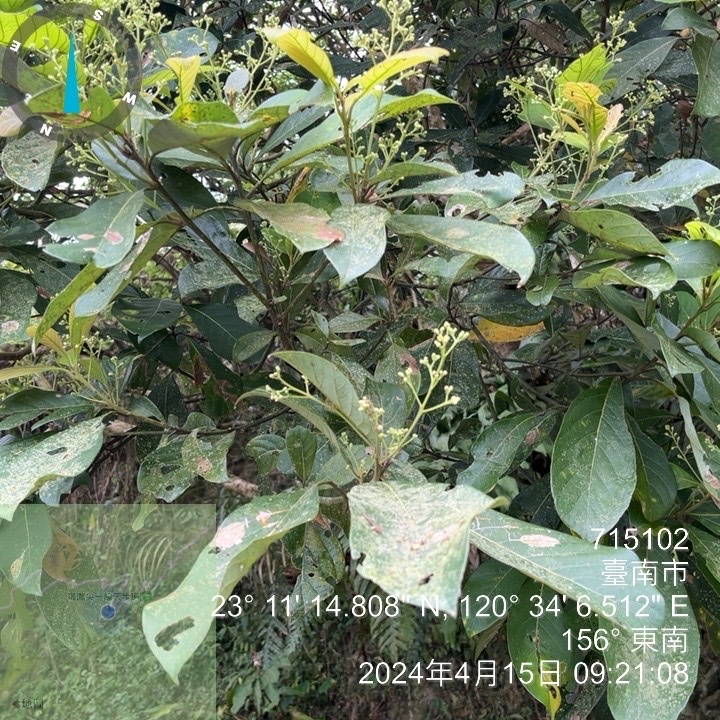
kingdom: Plantae
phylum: Tracheophyta
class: Magnoliopsida
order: Laurales
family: Lauraceae
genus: Phoebe
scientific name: Phoebe formosana
